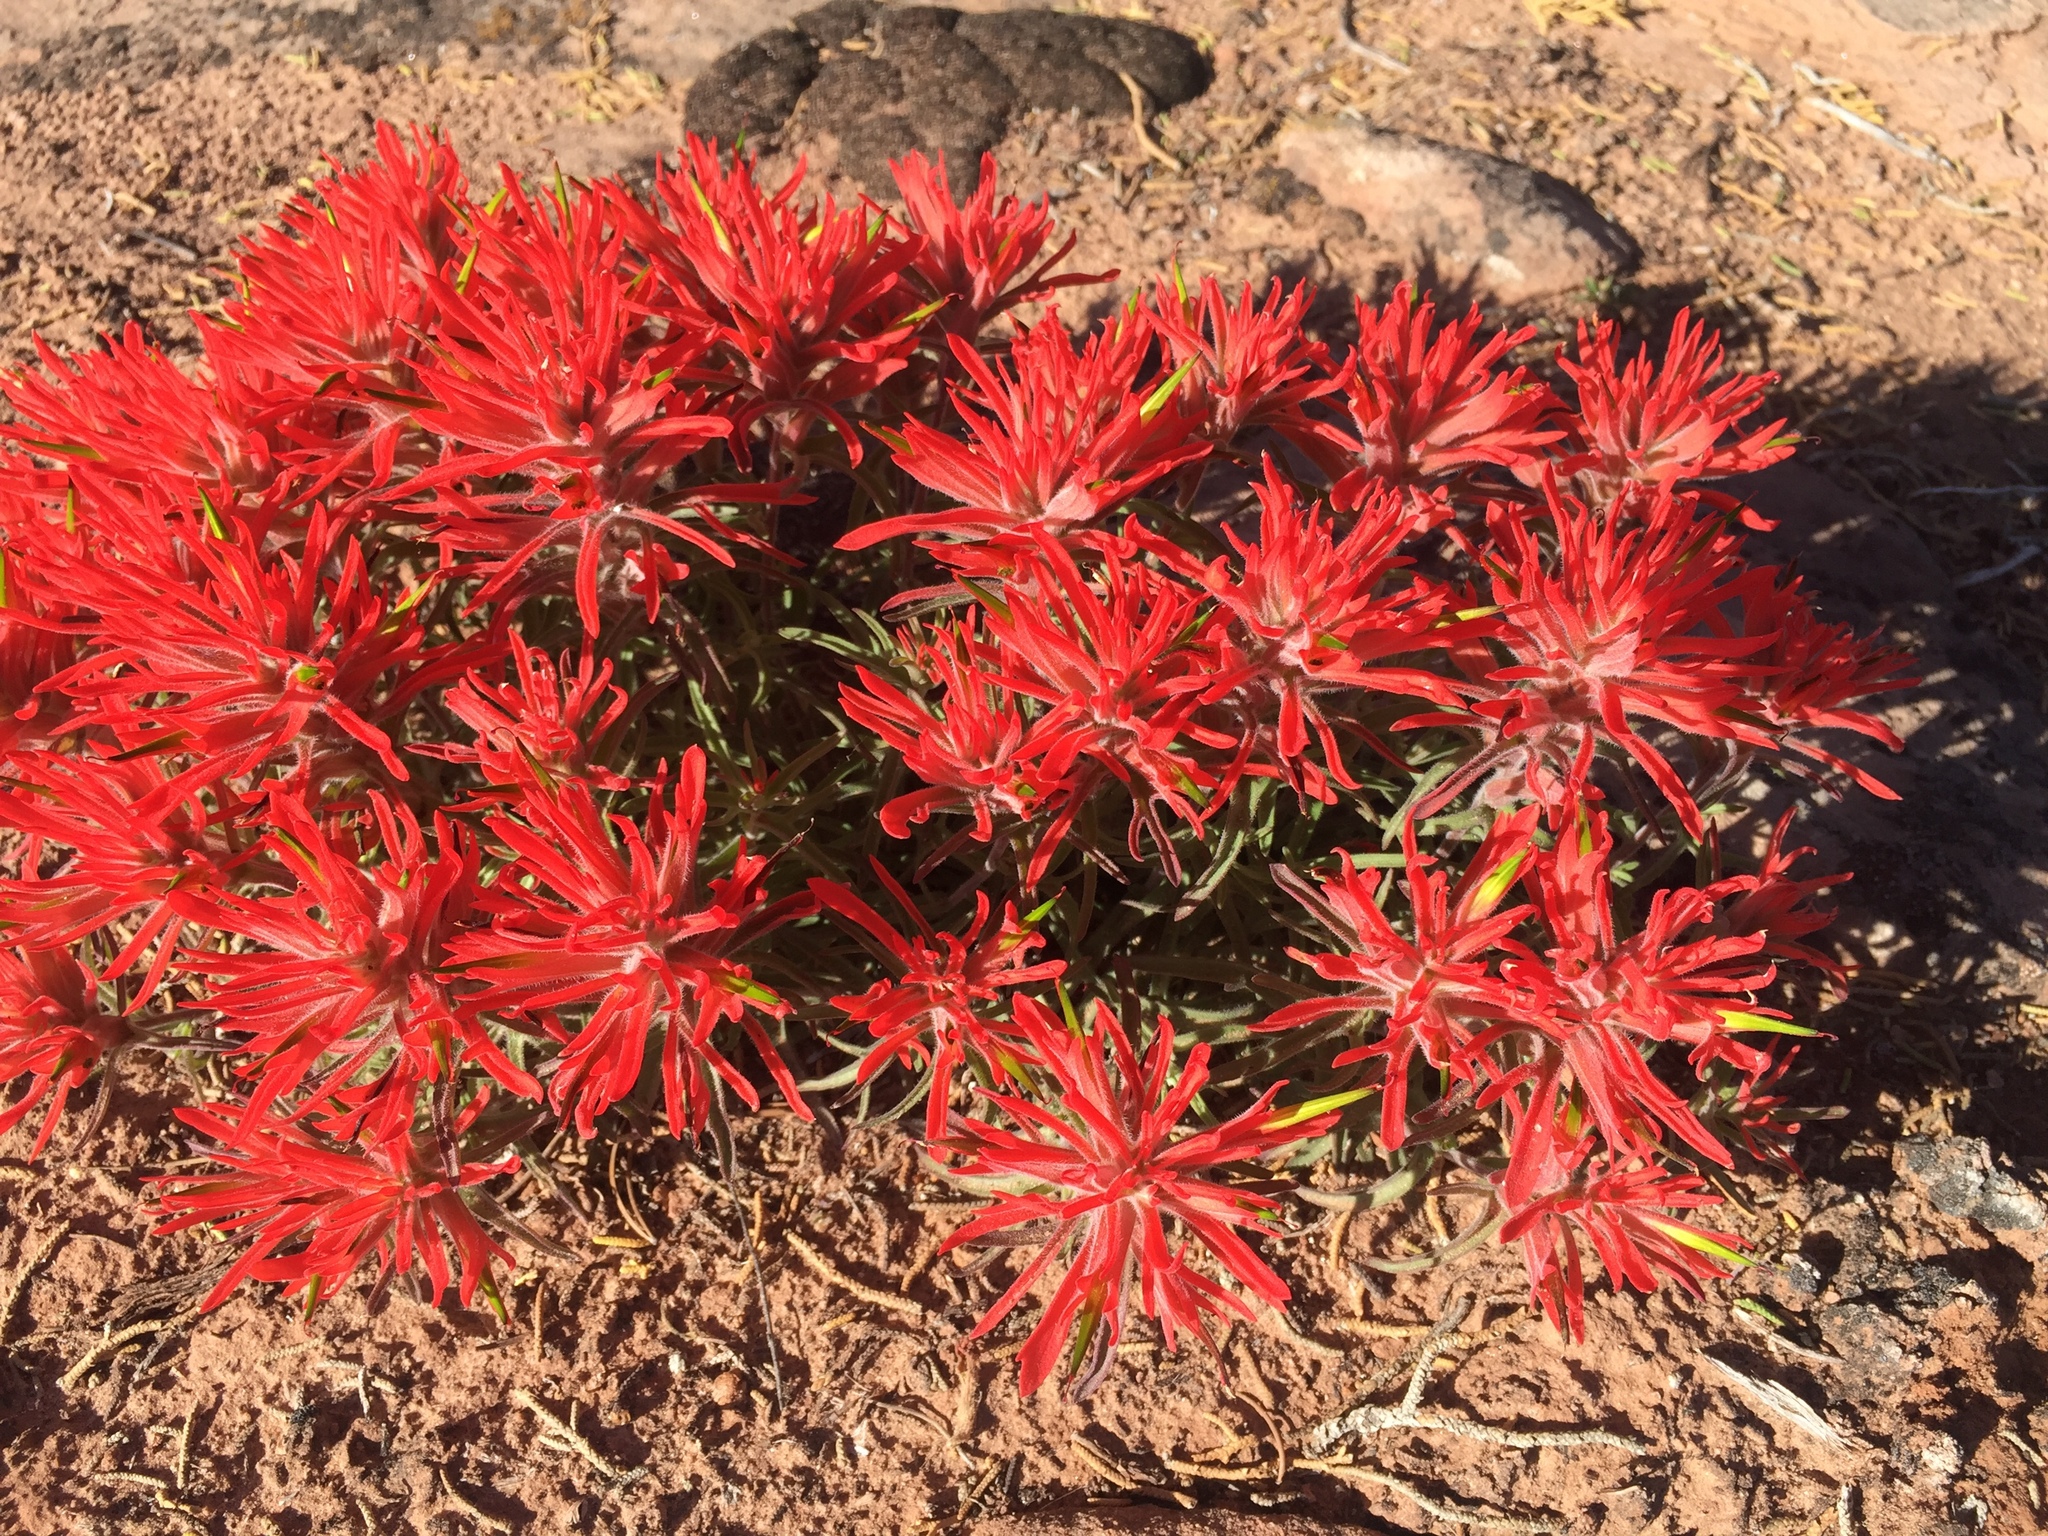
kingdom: Plantae
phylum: Tracheophyta
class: Magnoliopsida
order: Lamiales
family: Orobanchaceae
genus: Castilleja
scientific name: Castilleja scabrida
